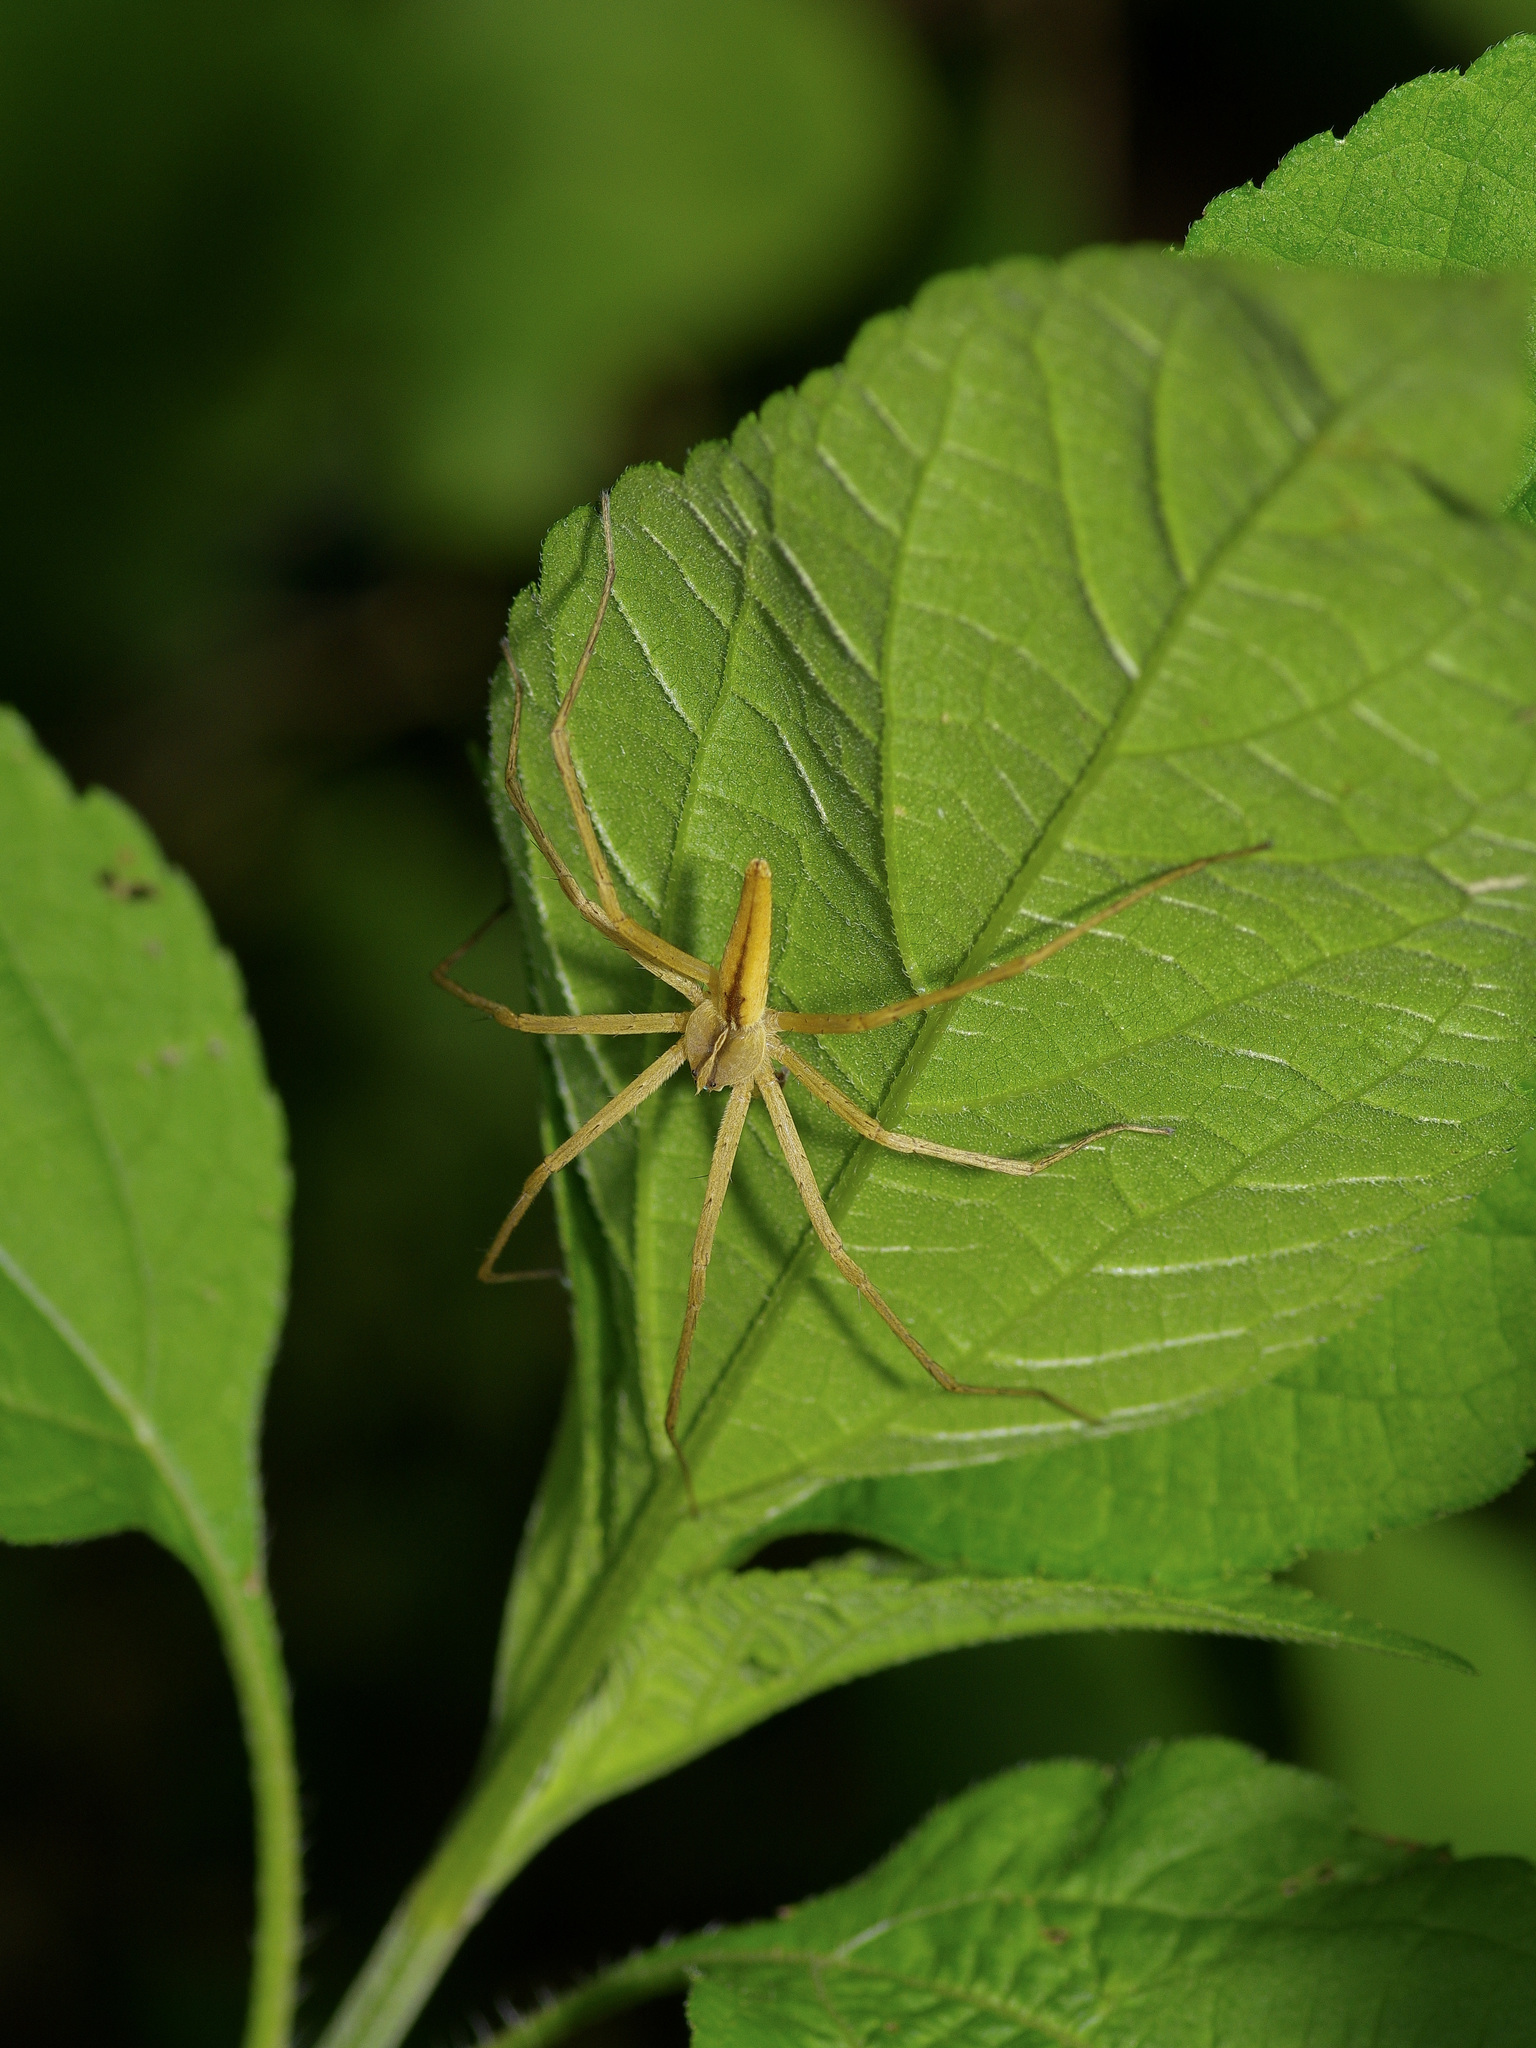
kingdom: Animalia
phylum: Arthropoda
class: Arachnida
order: Araneae
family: Pisauridae
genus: Pisaurina
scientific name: Pisaurina dubia
